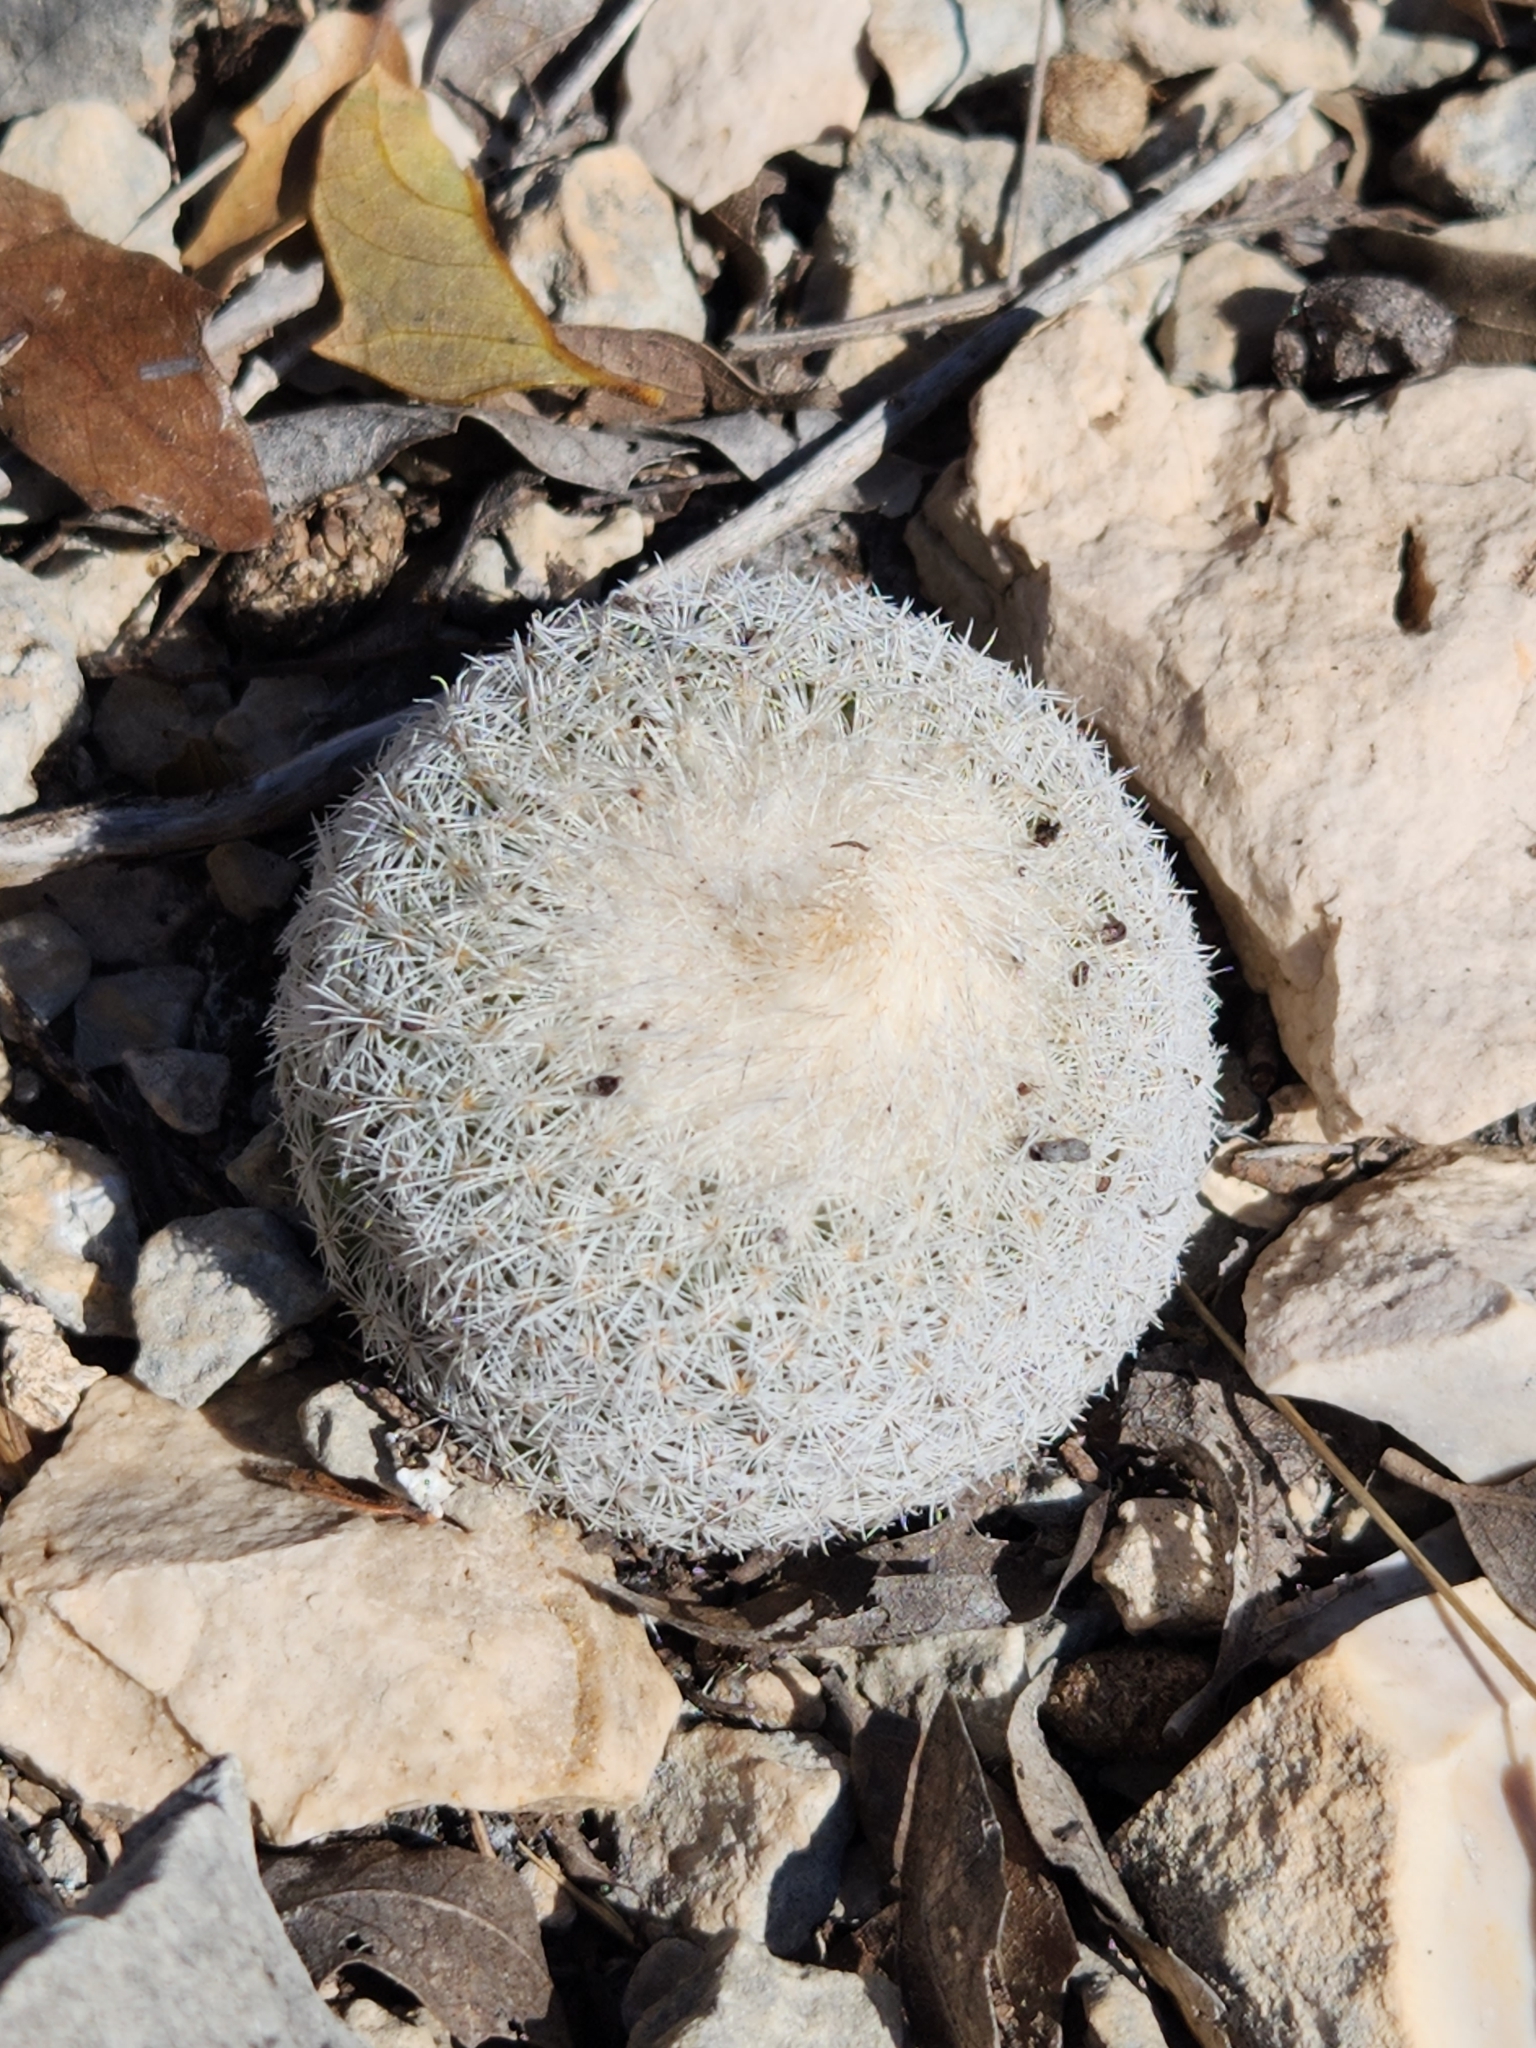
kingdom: Plantae
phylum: Tracheophyta
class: Magnoliopsida
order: Caryophyllales
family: Cactaceae
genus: Epithelantha
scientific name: Epithelantha micromeris
